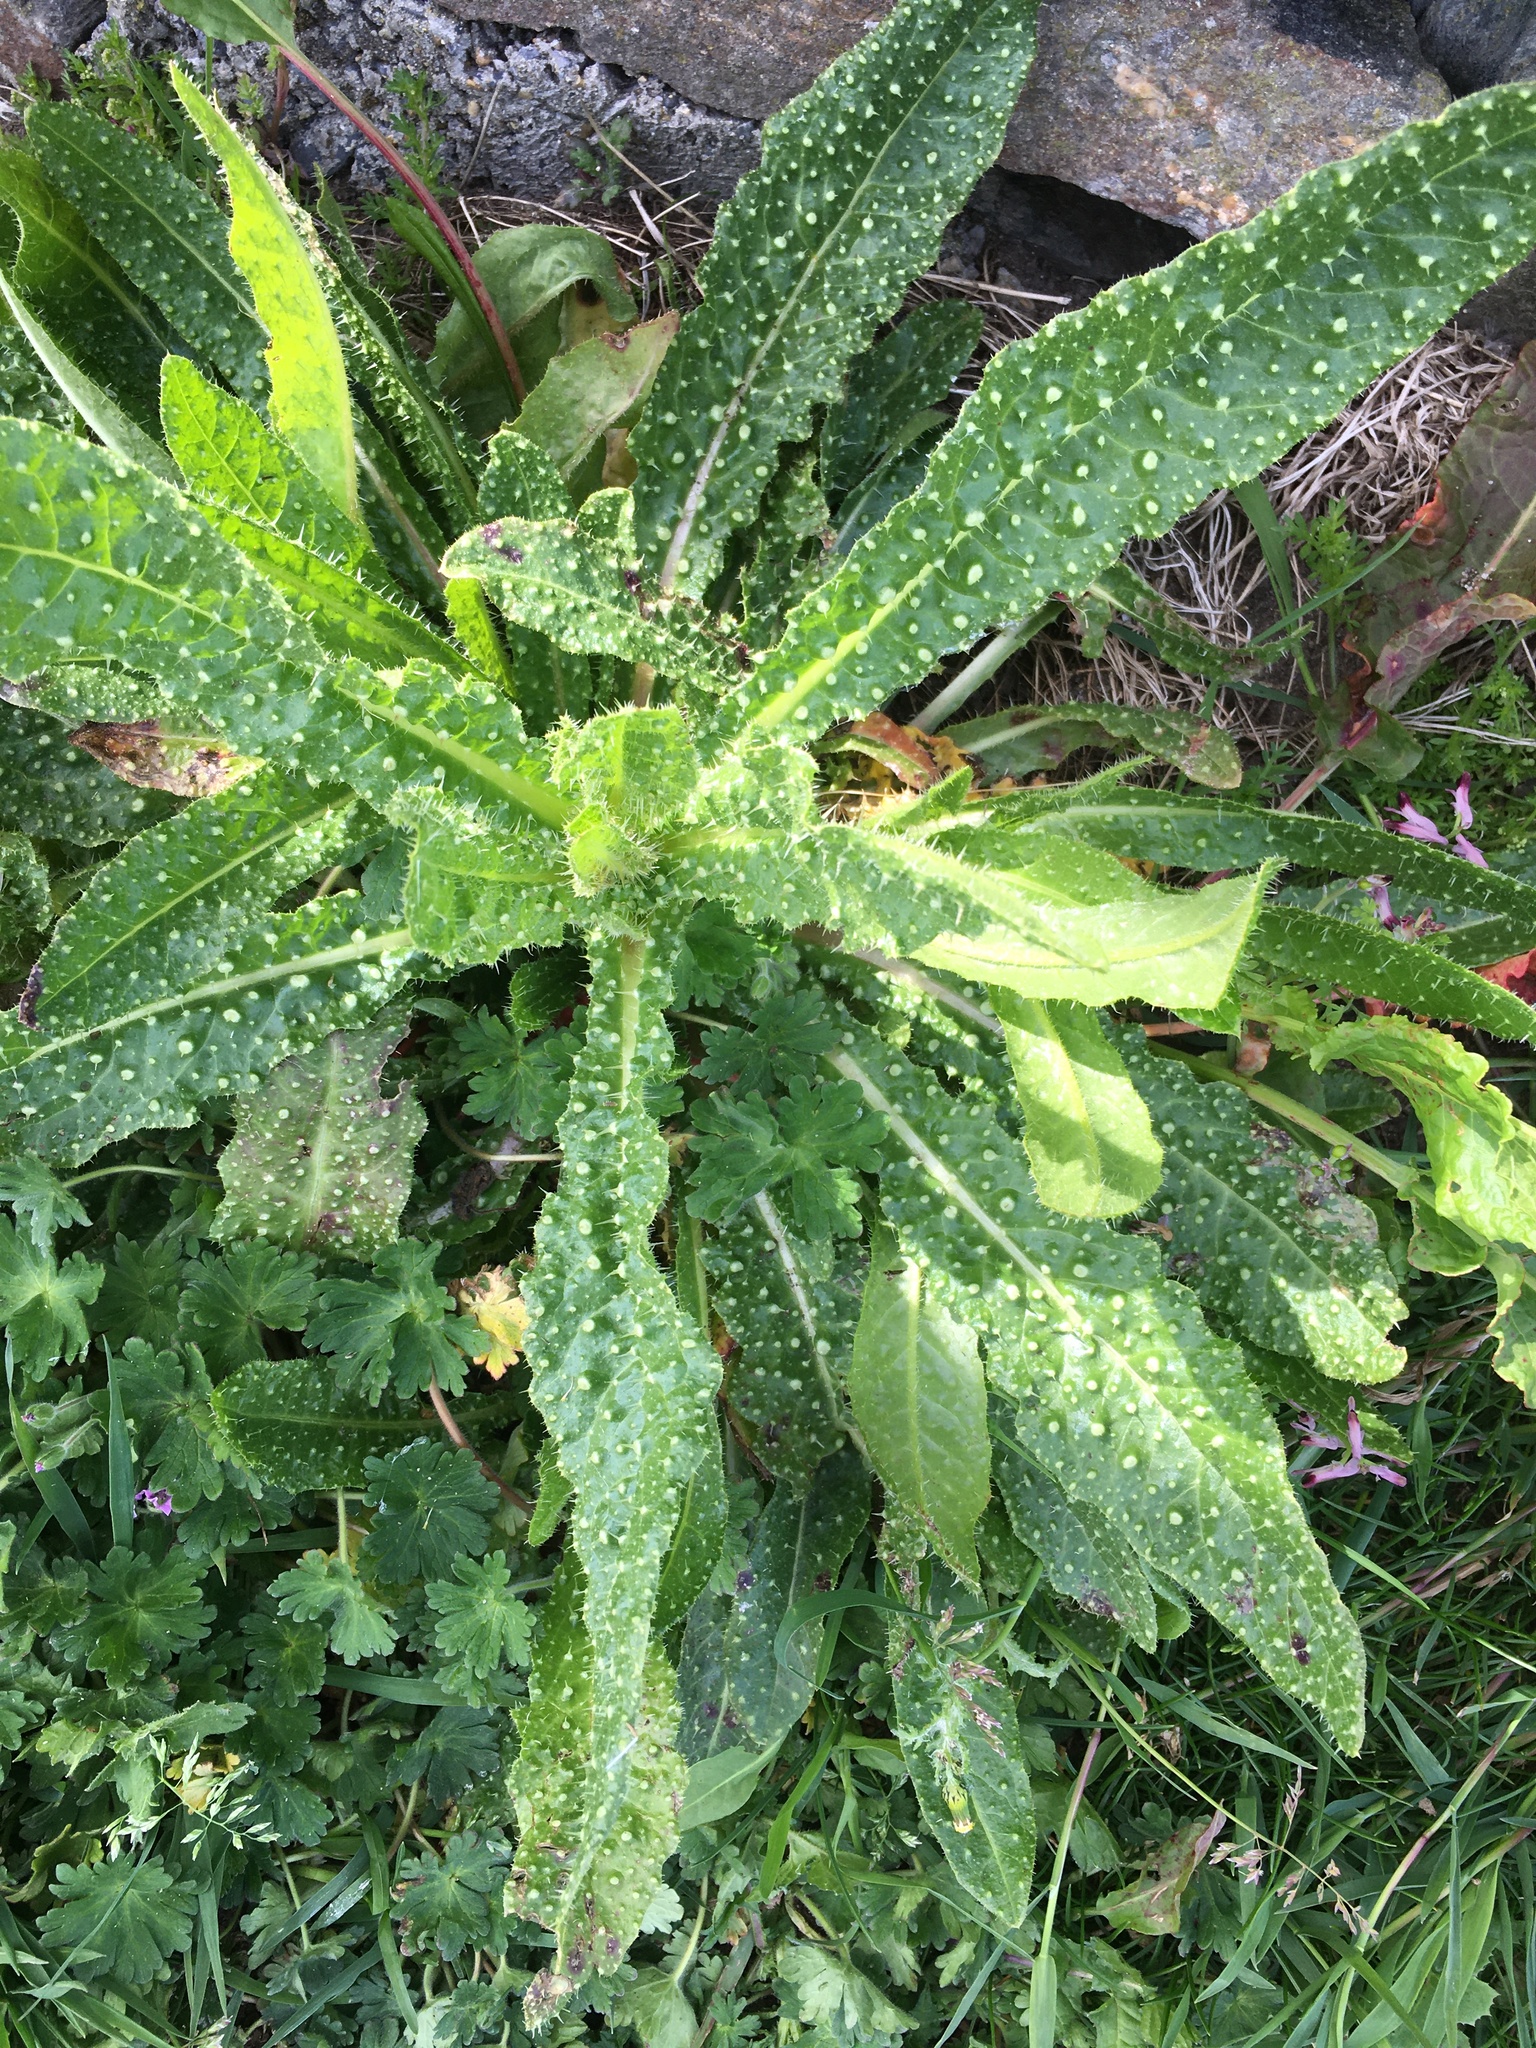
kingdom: Plantae
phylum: Tracheophyta
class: Magnoliopsida
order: Asterales
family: Asteraceae
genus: Helminthotheca
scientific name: Helminthotheca echioides
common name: Ox-tongue
